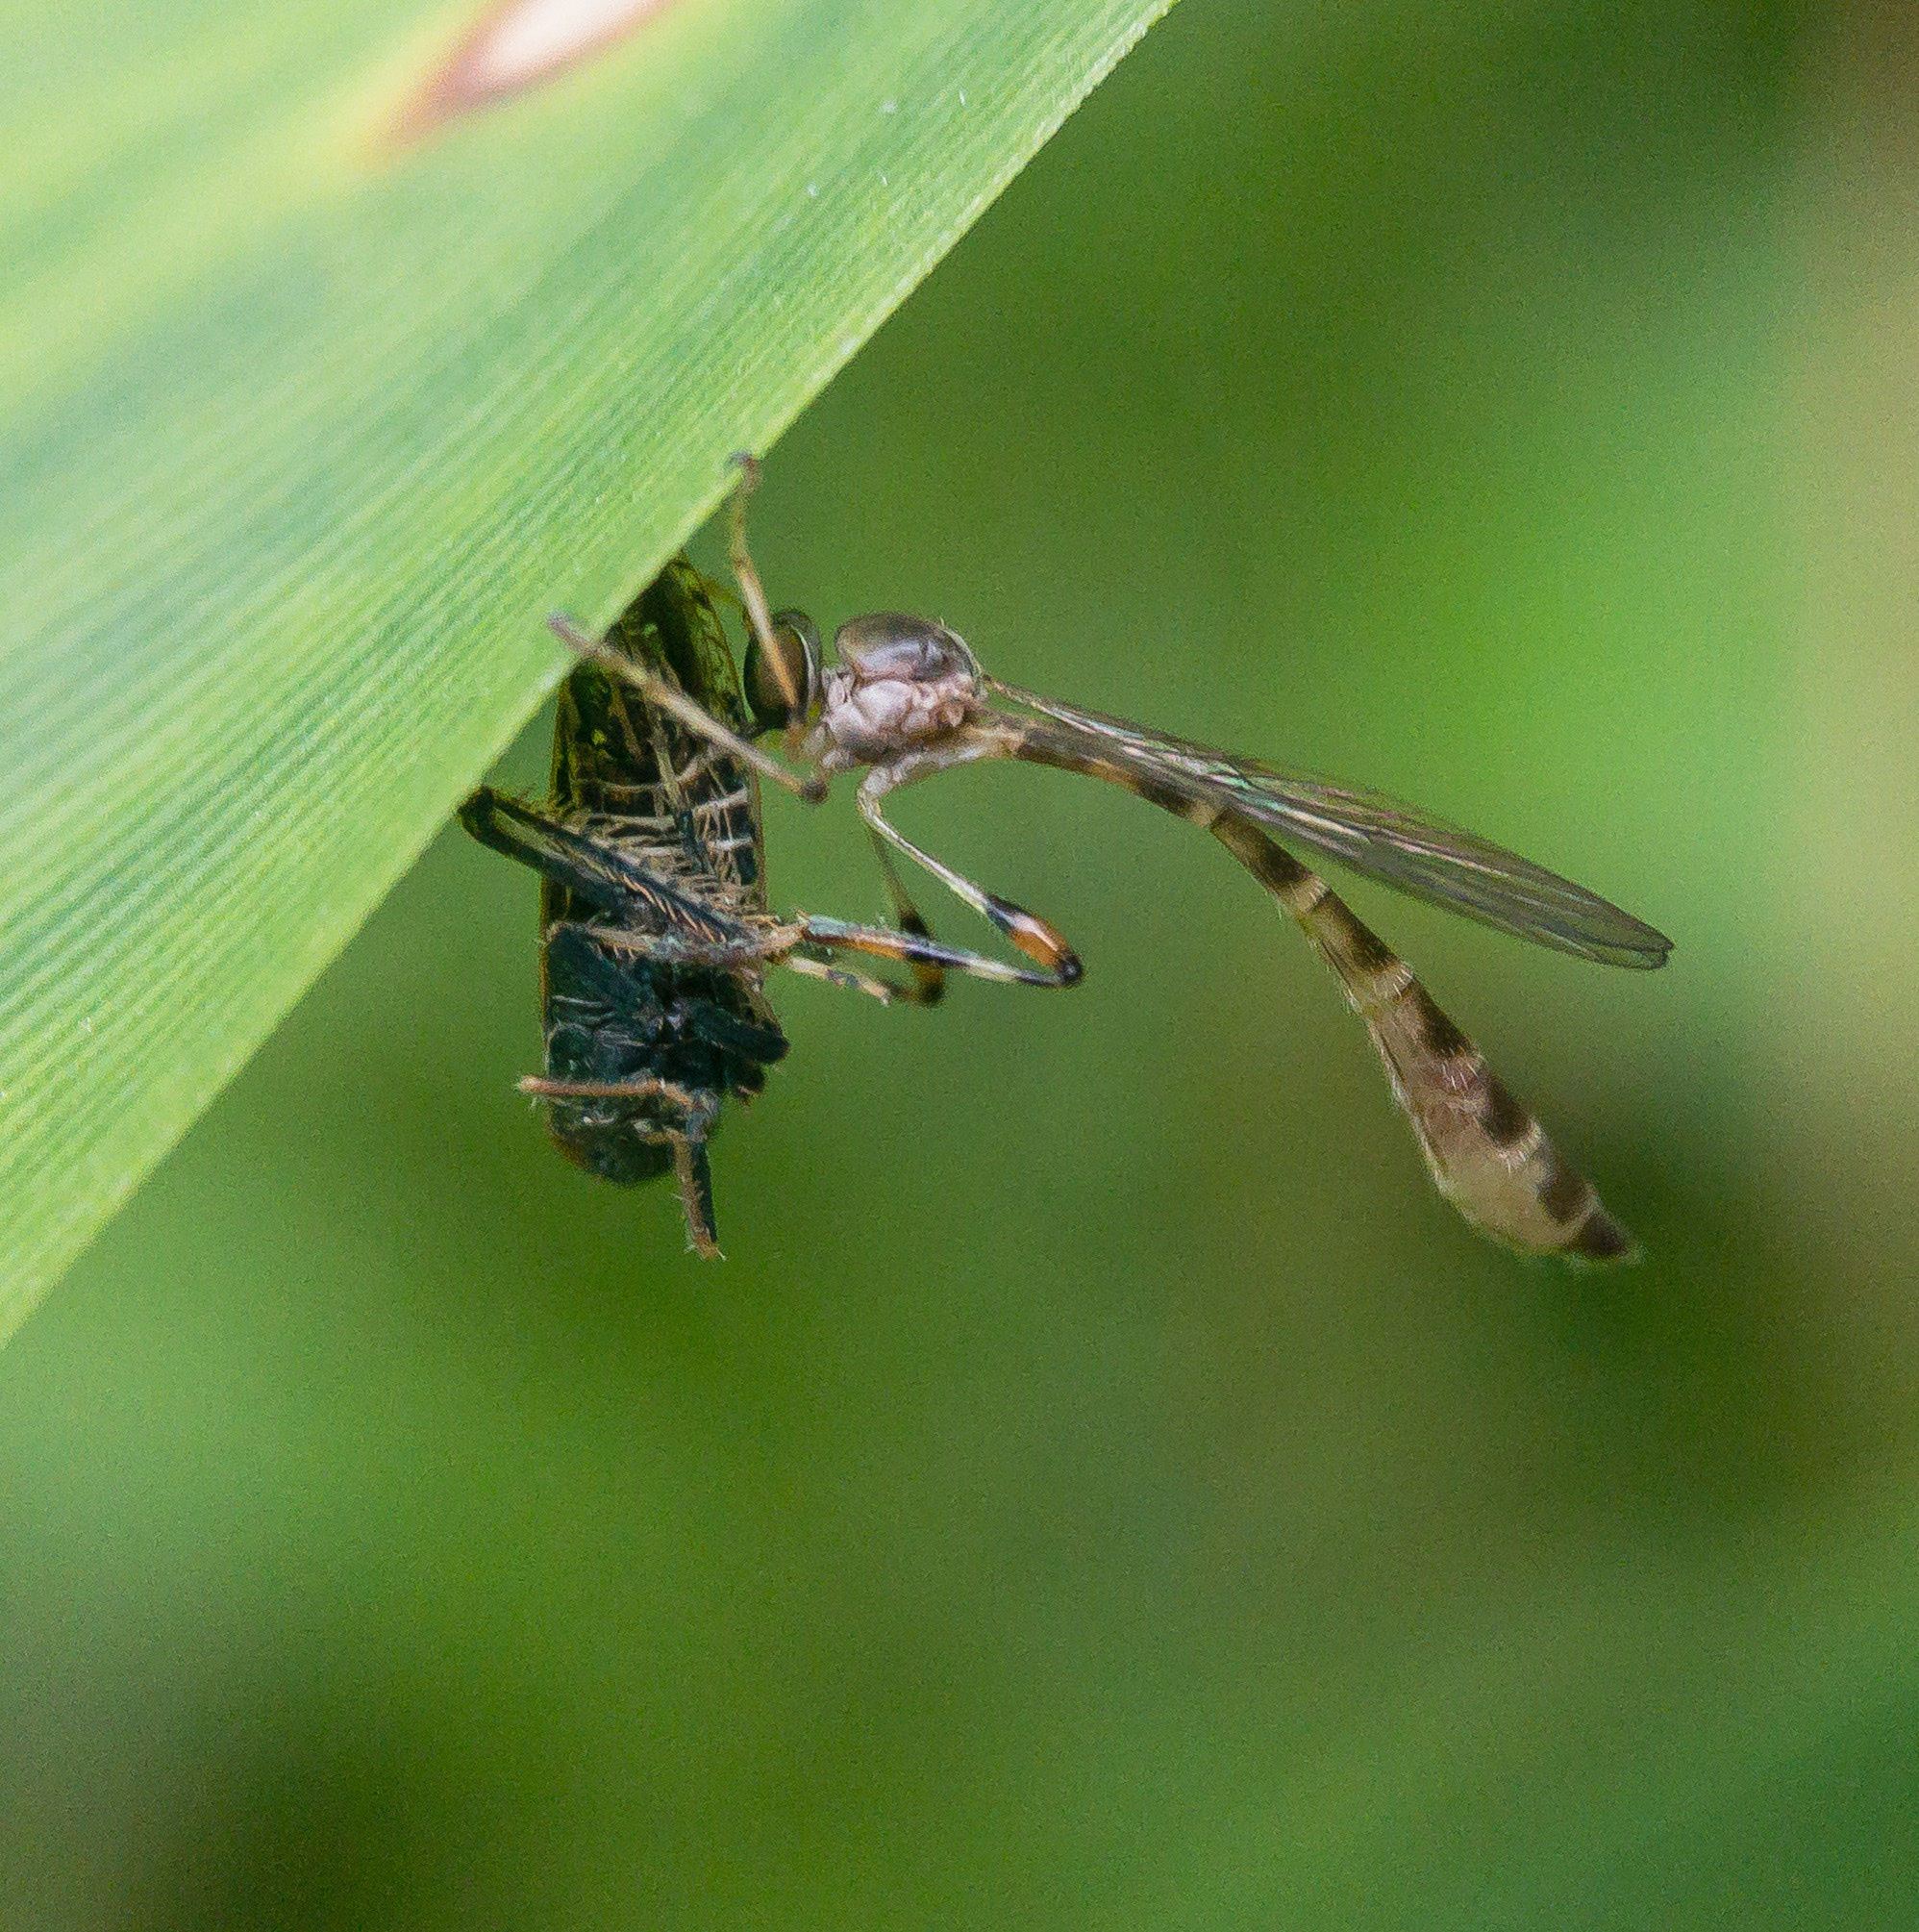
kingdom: Animalia
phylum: Arthropoda
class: Insecta
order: Diptera
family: Asilidae
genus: Psilonyx
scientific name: Psilonyx annulatus
